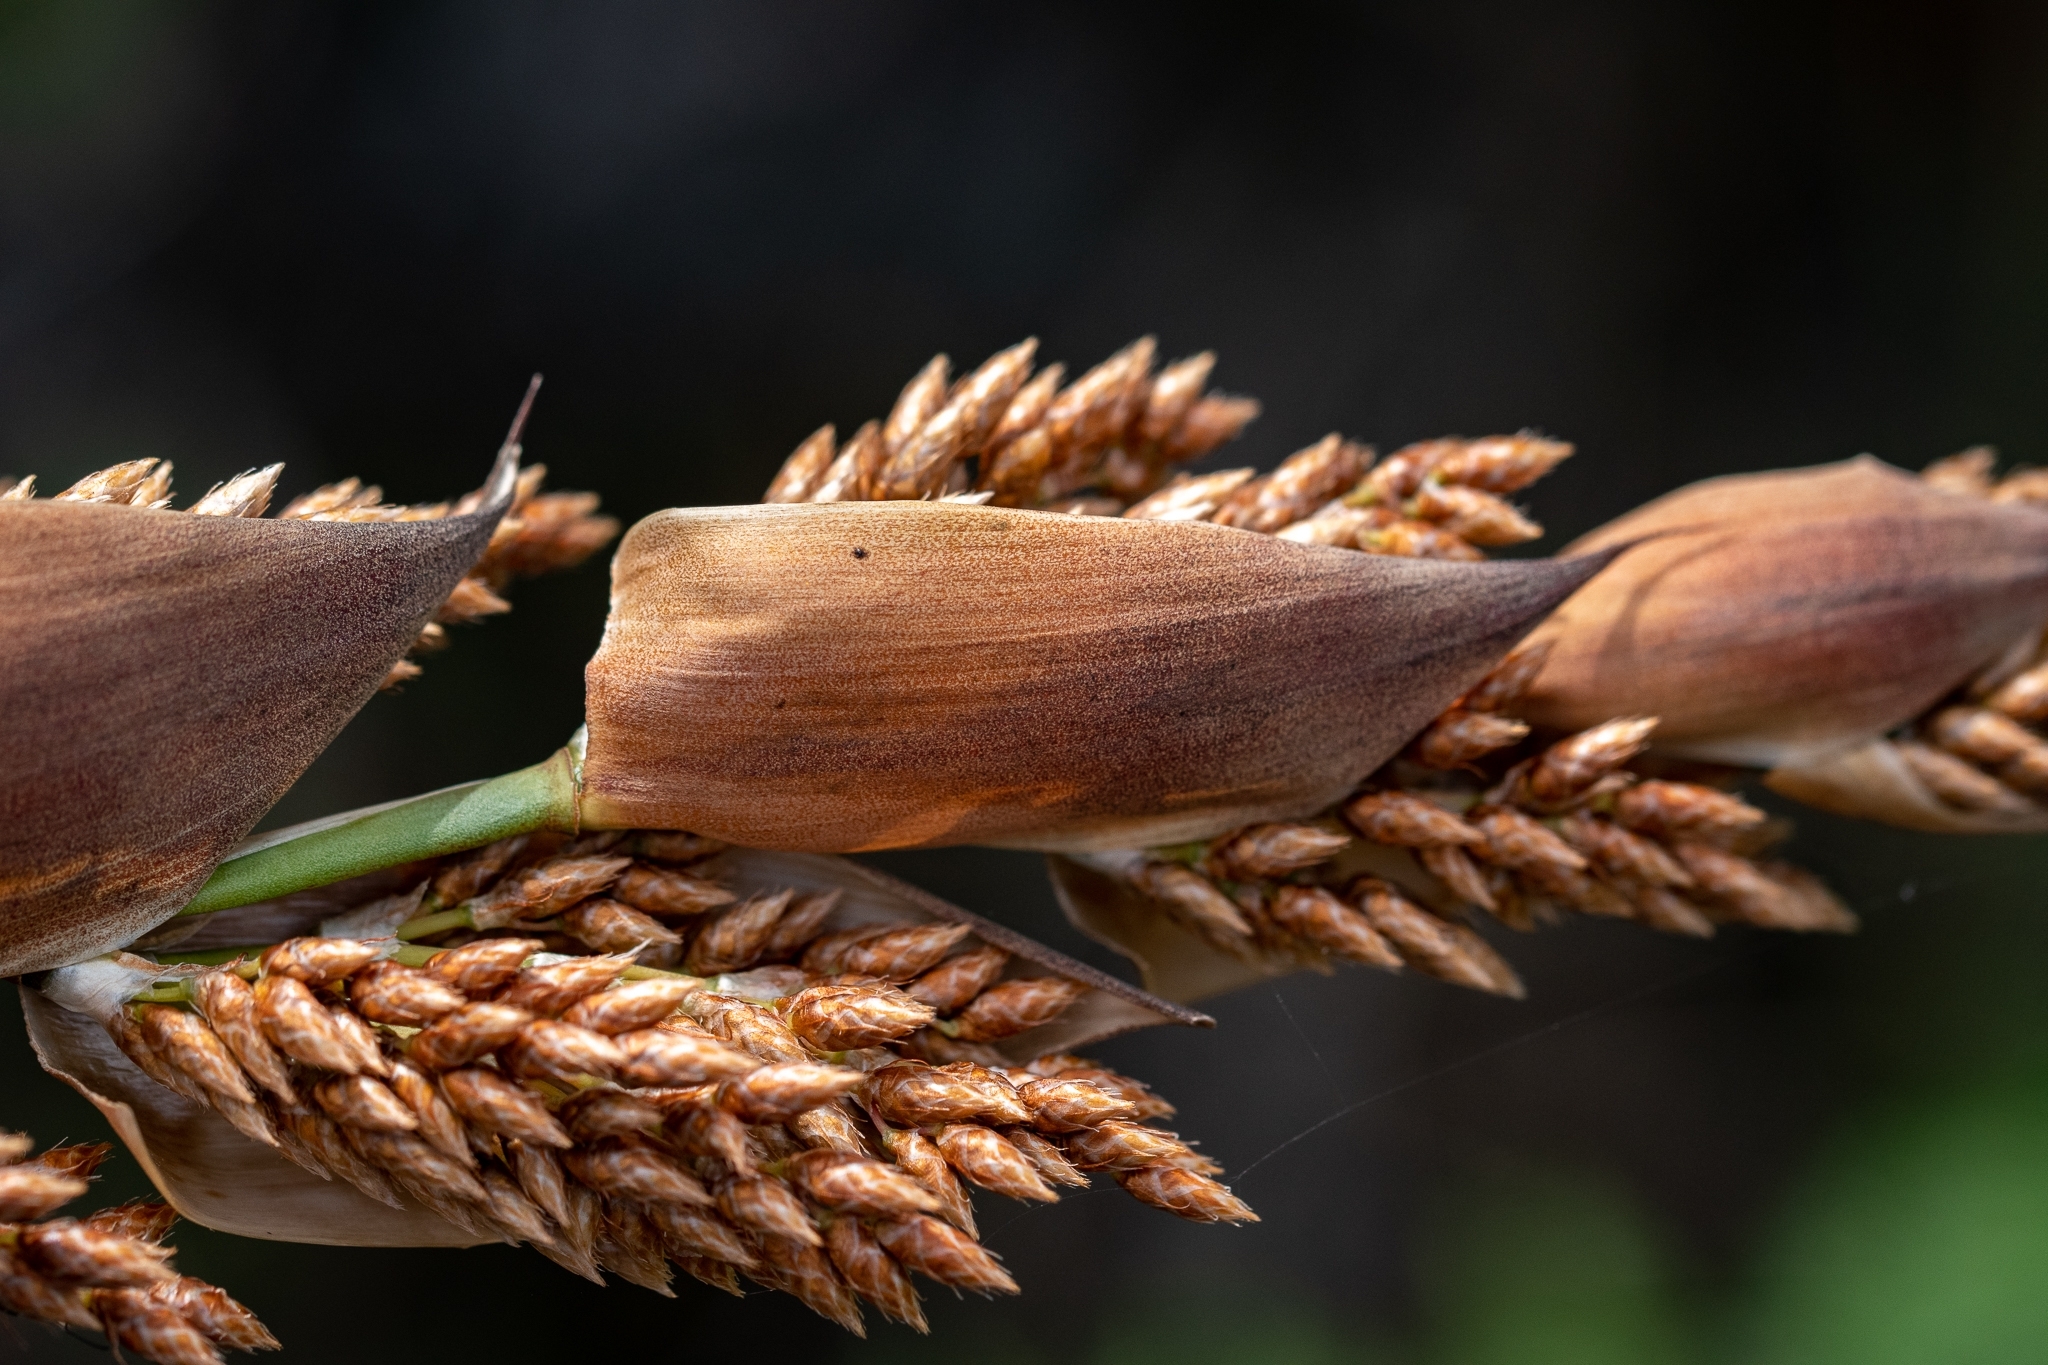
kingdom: Plantae
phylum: Tracheophyta
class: Liliopsida
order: Poales
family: Restionaceae
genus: Cannomois
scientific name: Cannomois virgata
